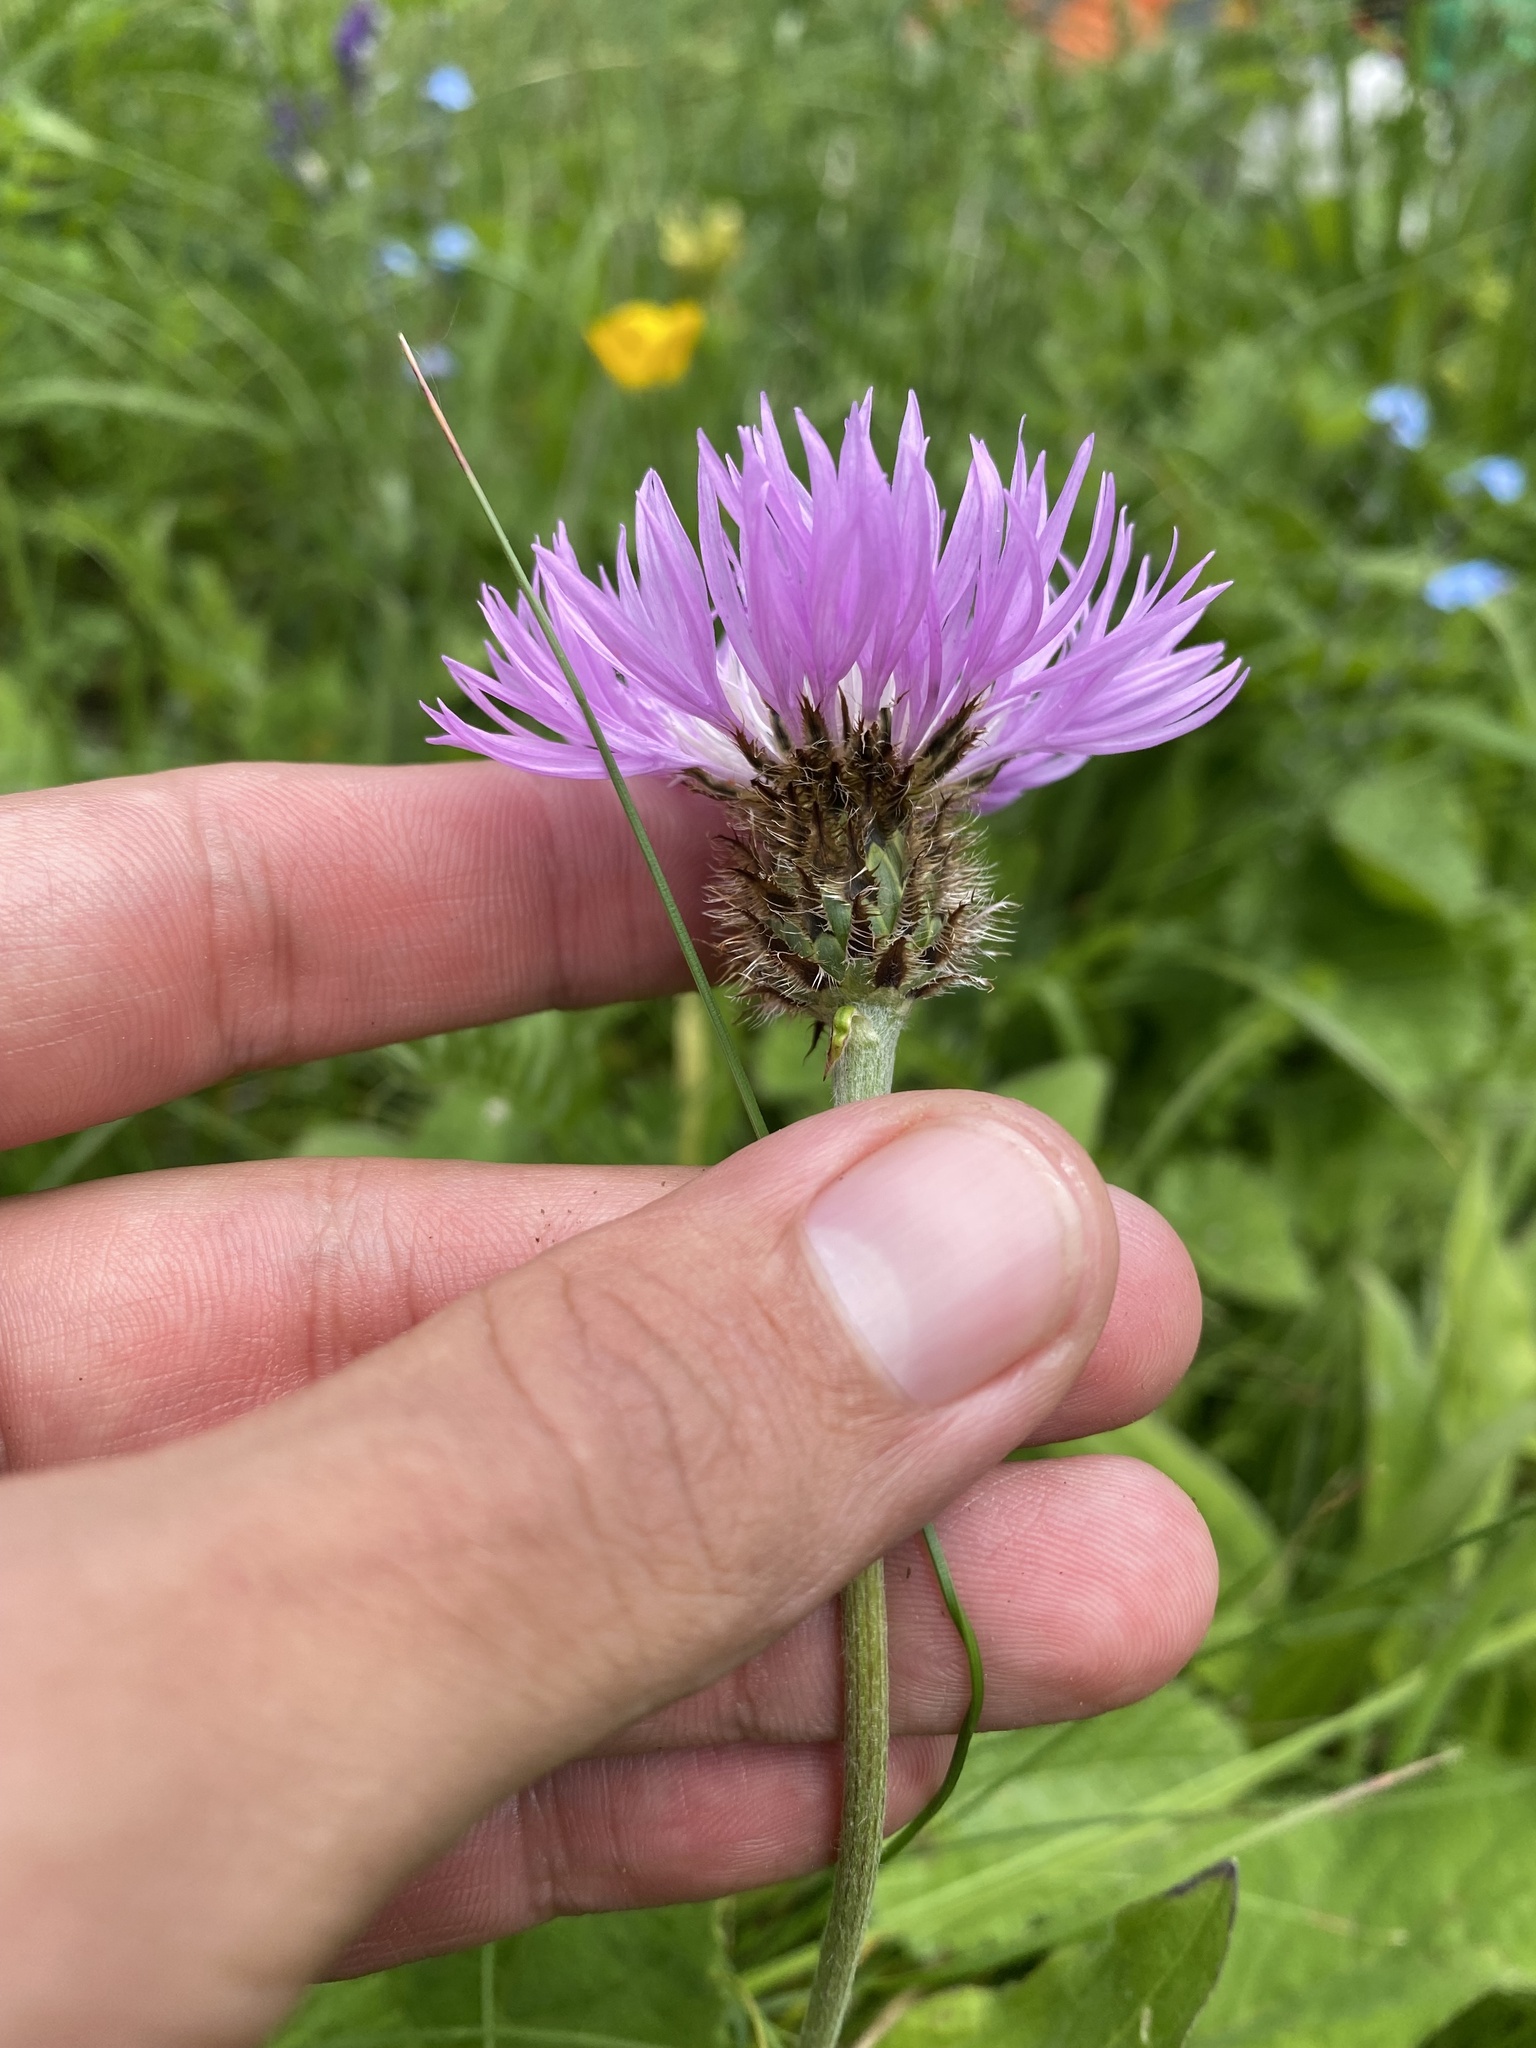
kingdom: Plantae
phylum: Tracheophyta
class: Magnoliopsida
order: Asterales
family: Asteraceae
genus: Psephellus
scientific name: Psephellus dealbatus
